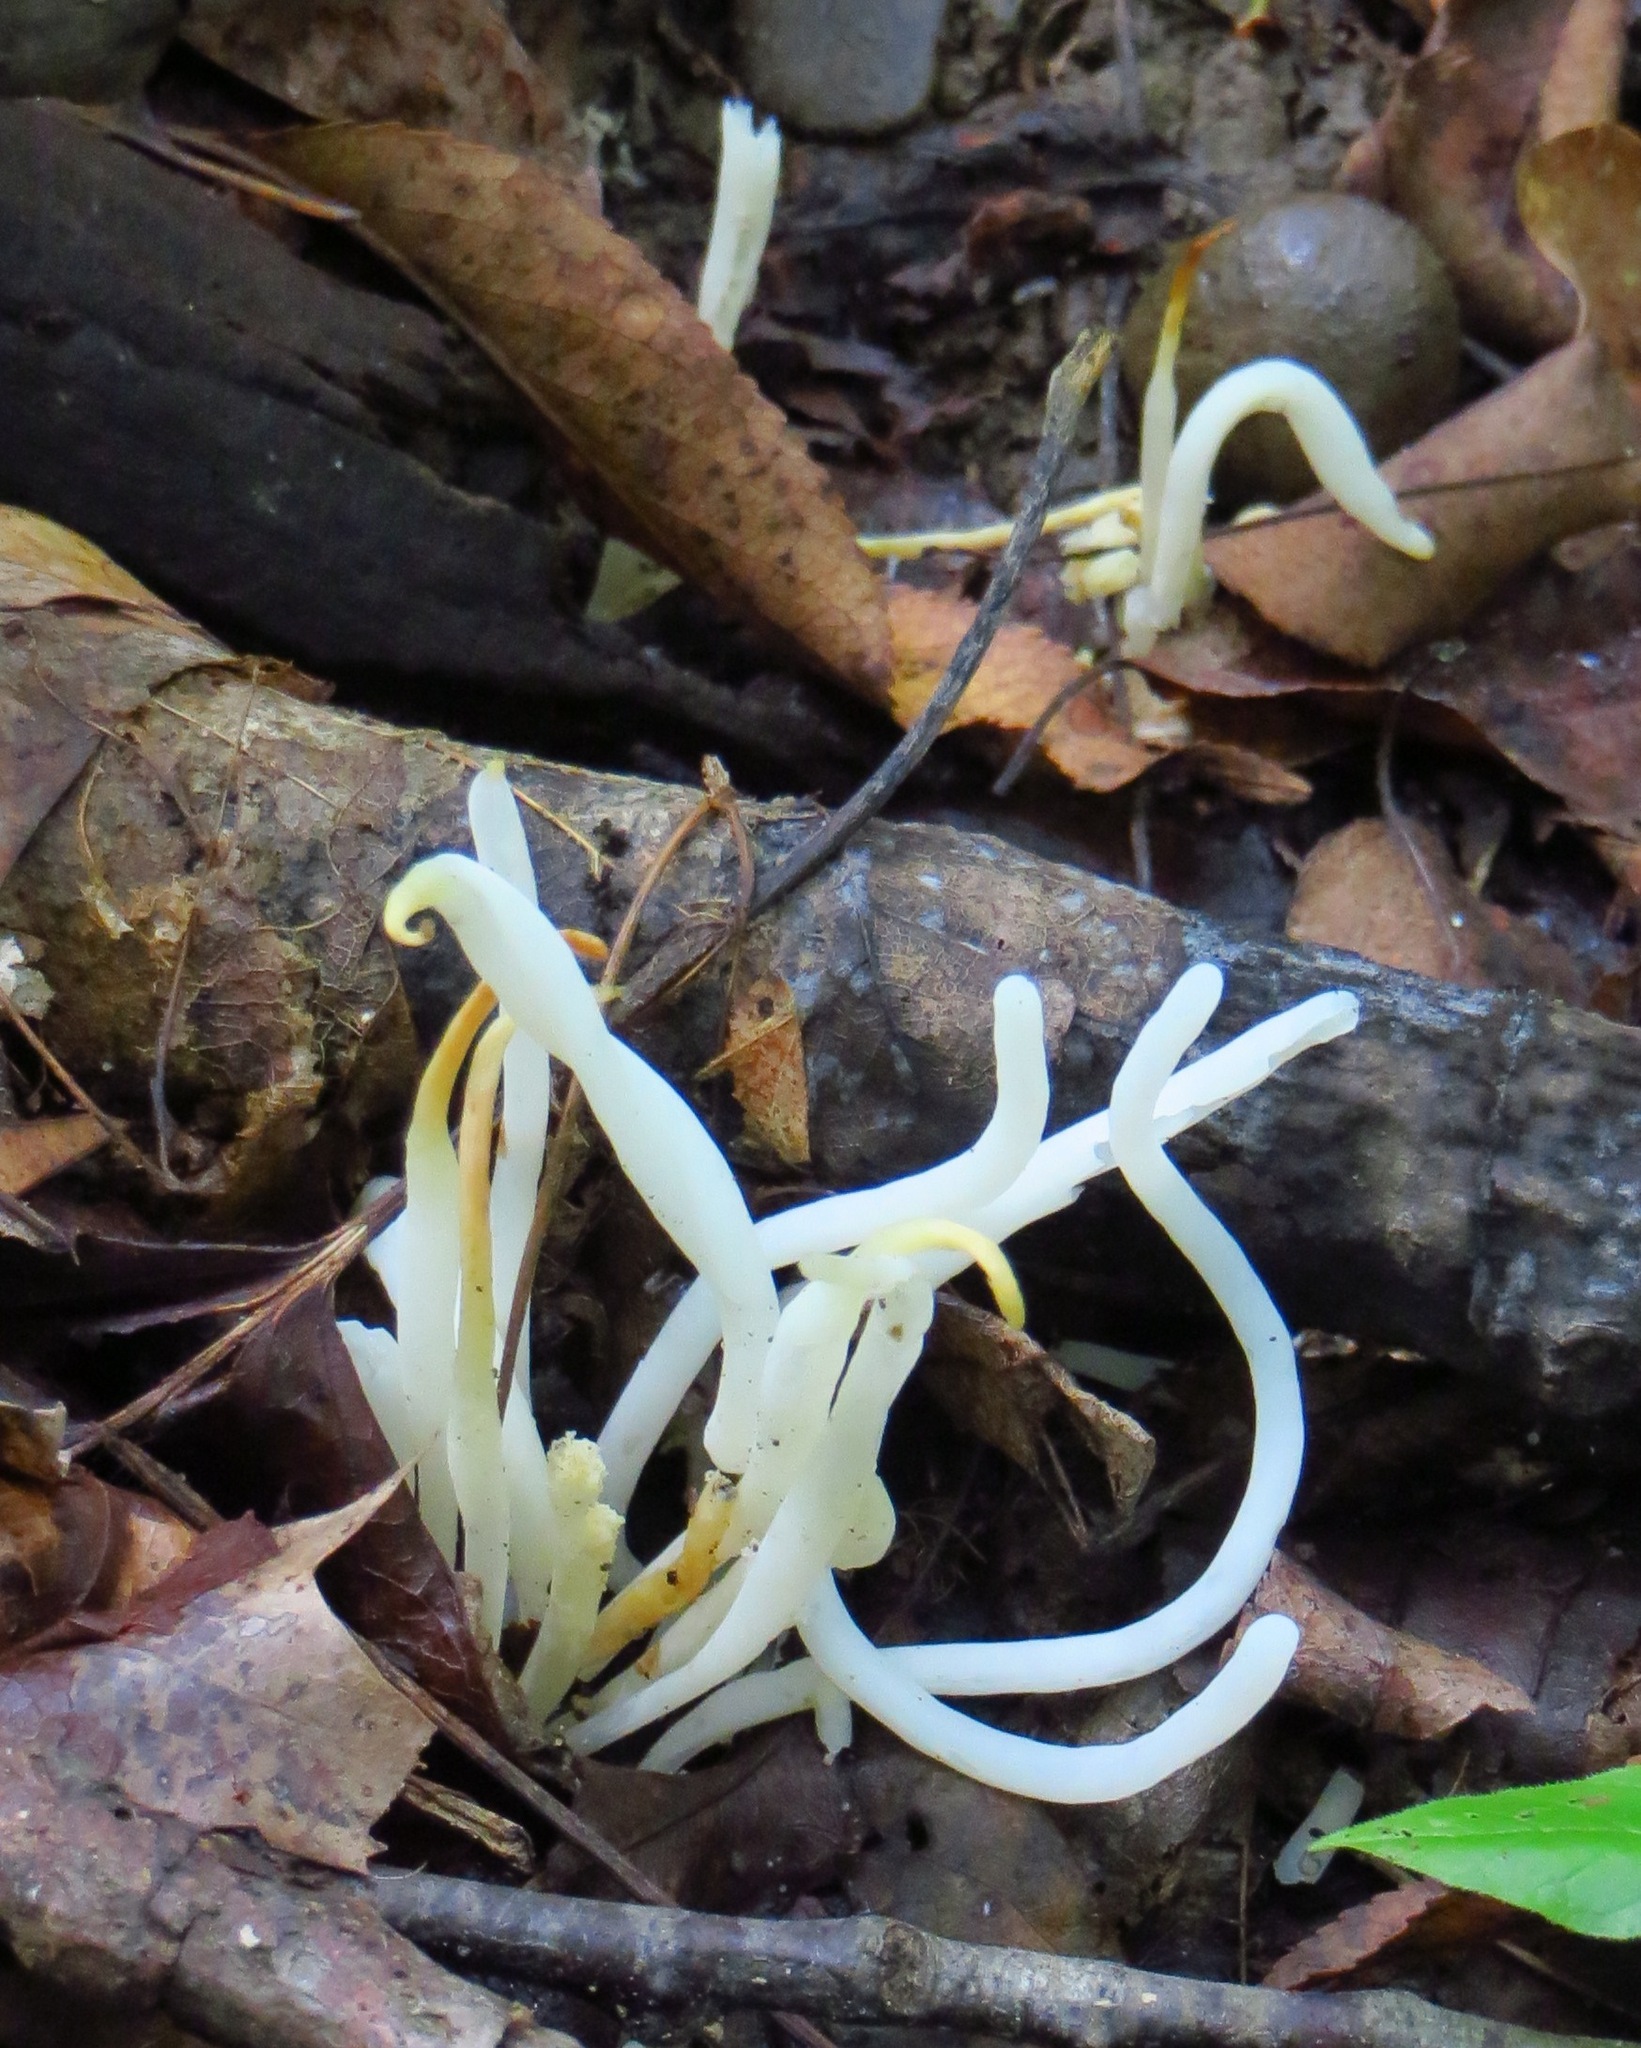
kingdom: Fungi
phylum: Basidiomycota
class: Agaricomycetes
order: Agaricales
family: Clavariaceae
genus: Clavaria
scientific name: Clavaria fragilis
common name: White spindles
